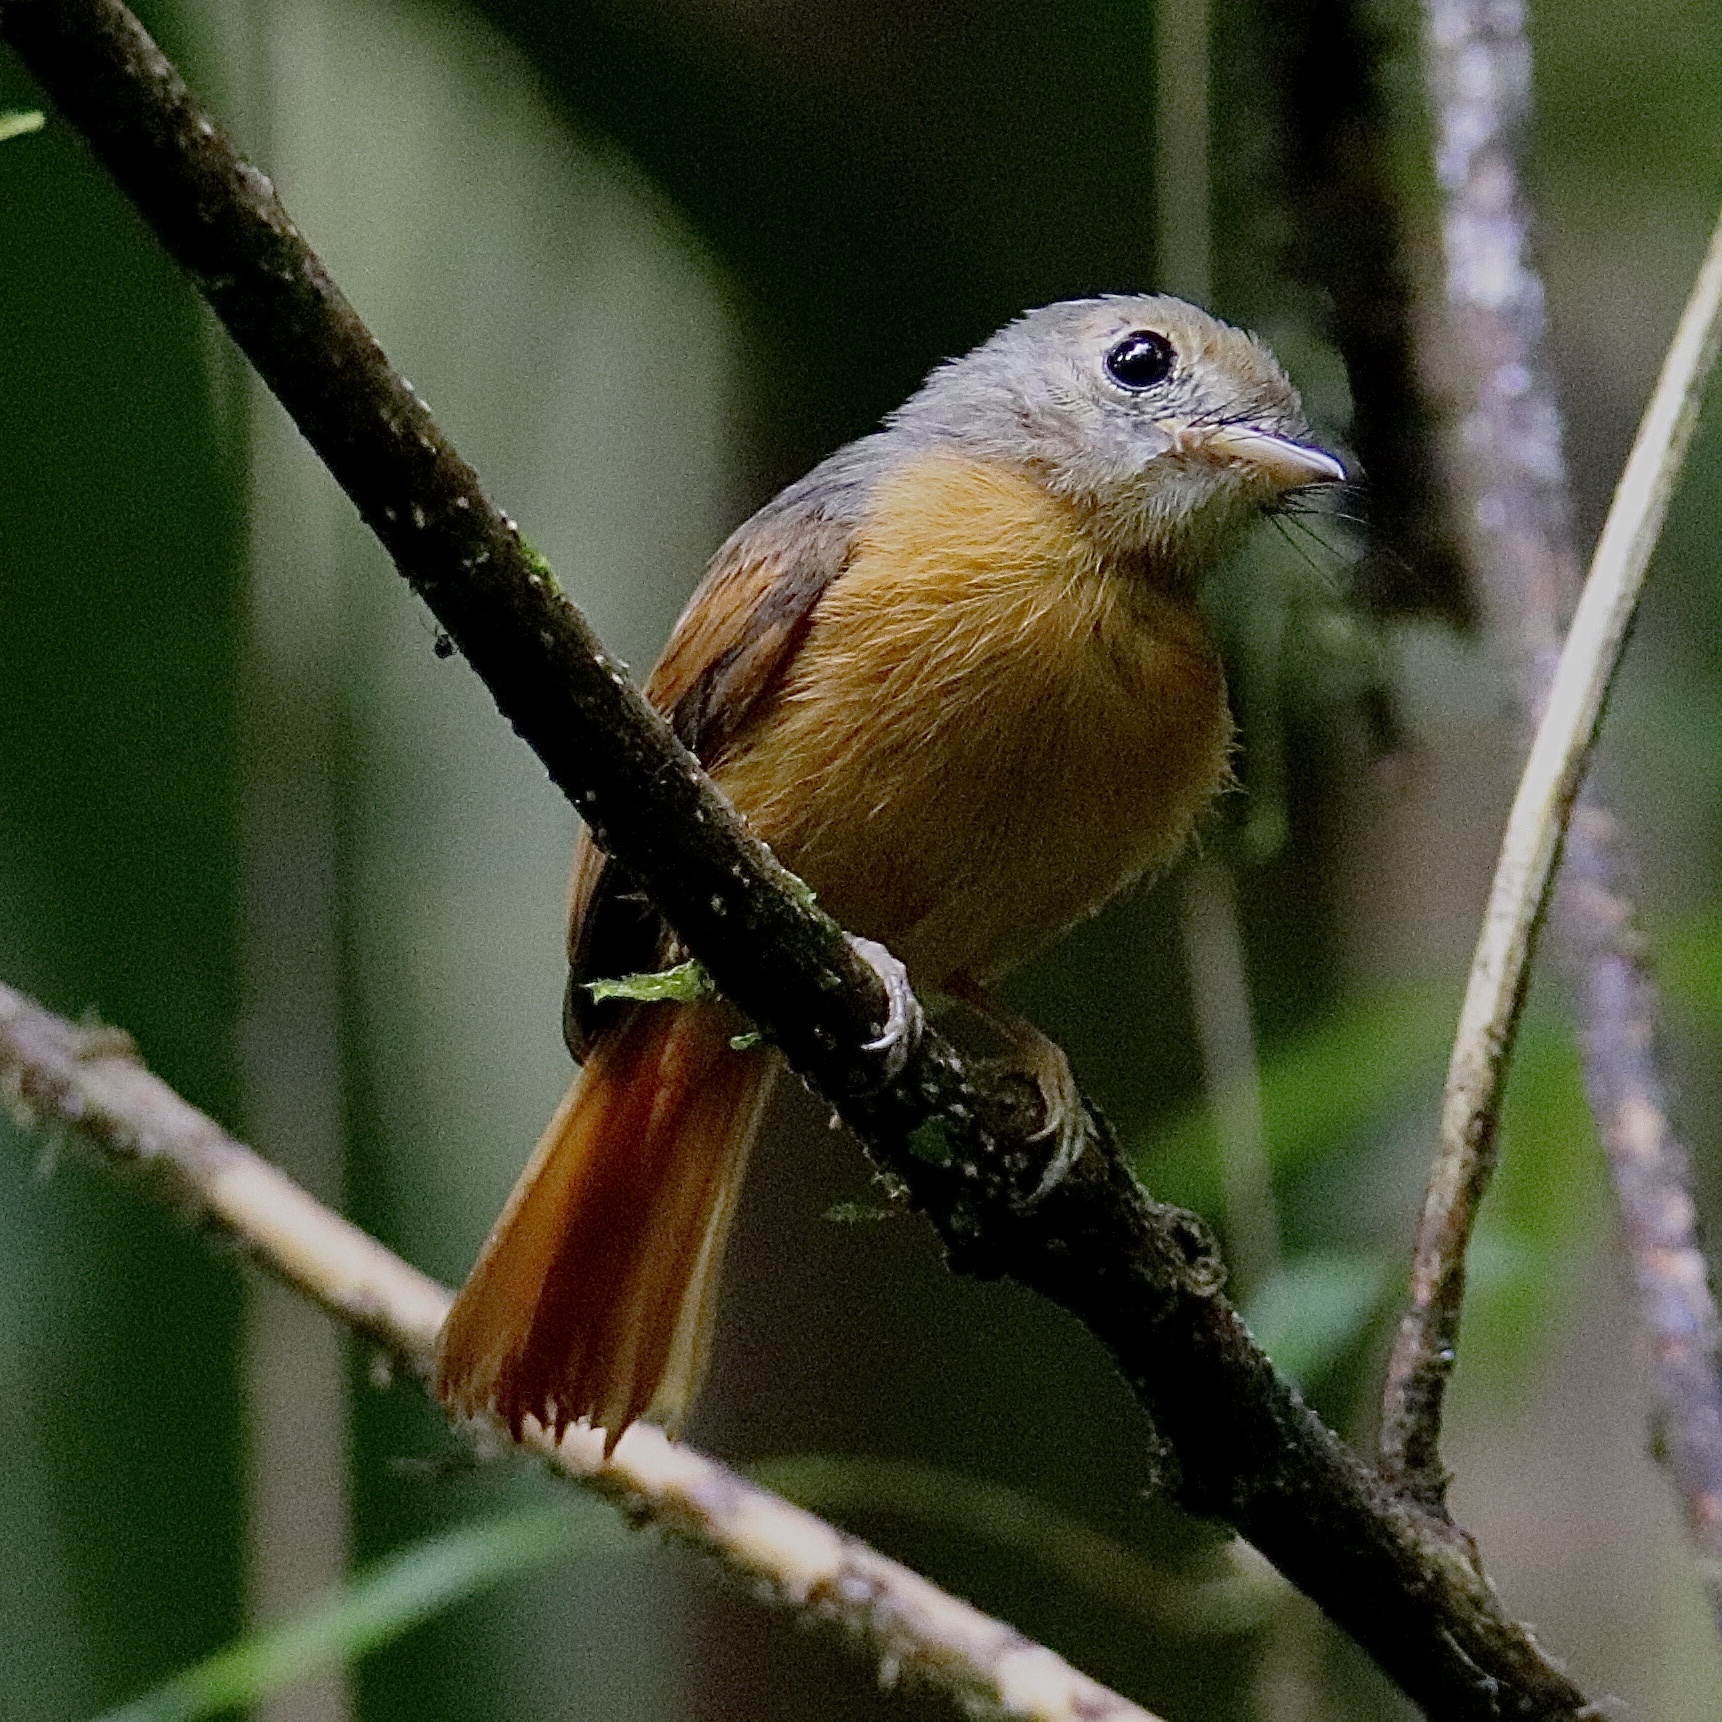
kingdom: Animalia
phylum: Chordata
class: Aves
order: Passeriformes
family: Tyrannidae
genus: Terenotriccus
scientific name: Terenotriccus erythrurus
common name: Ruddy-tailed flycatcher
